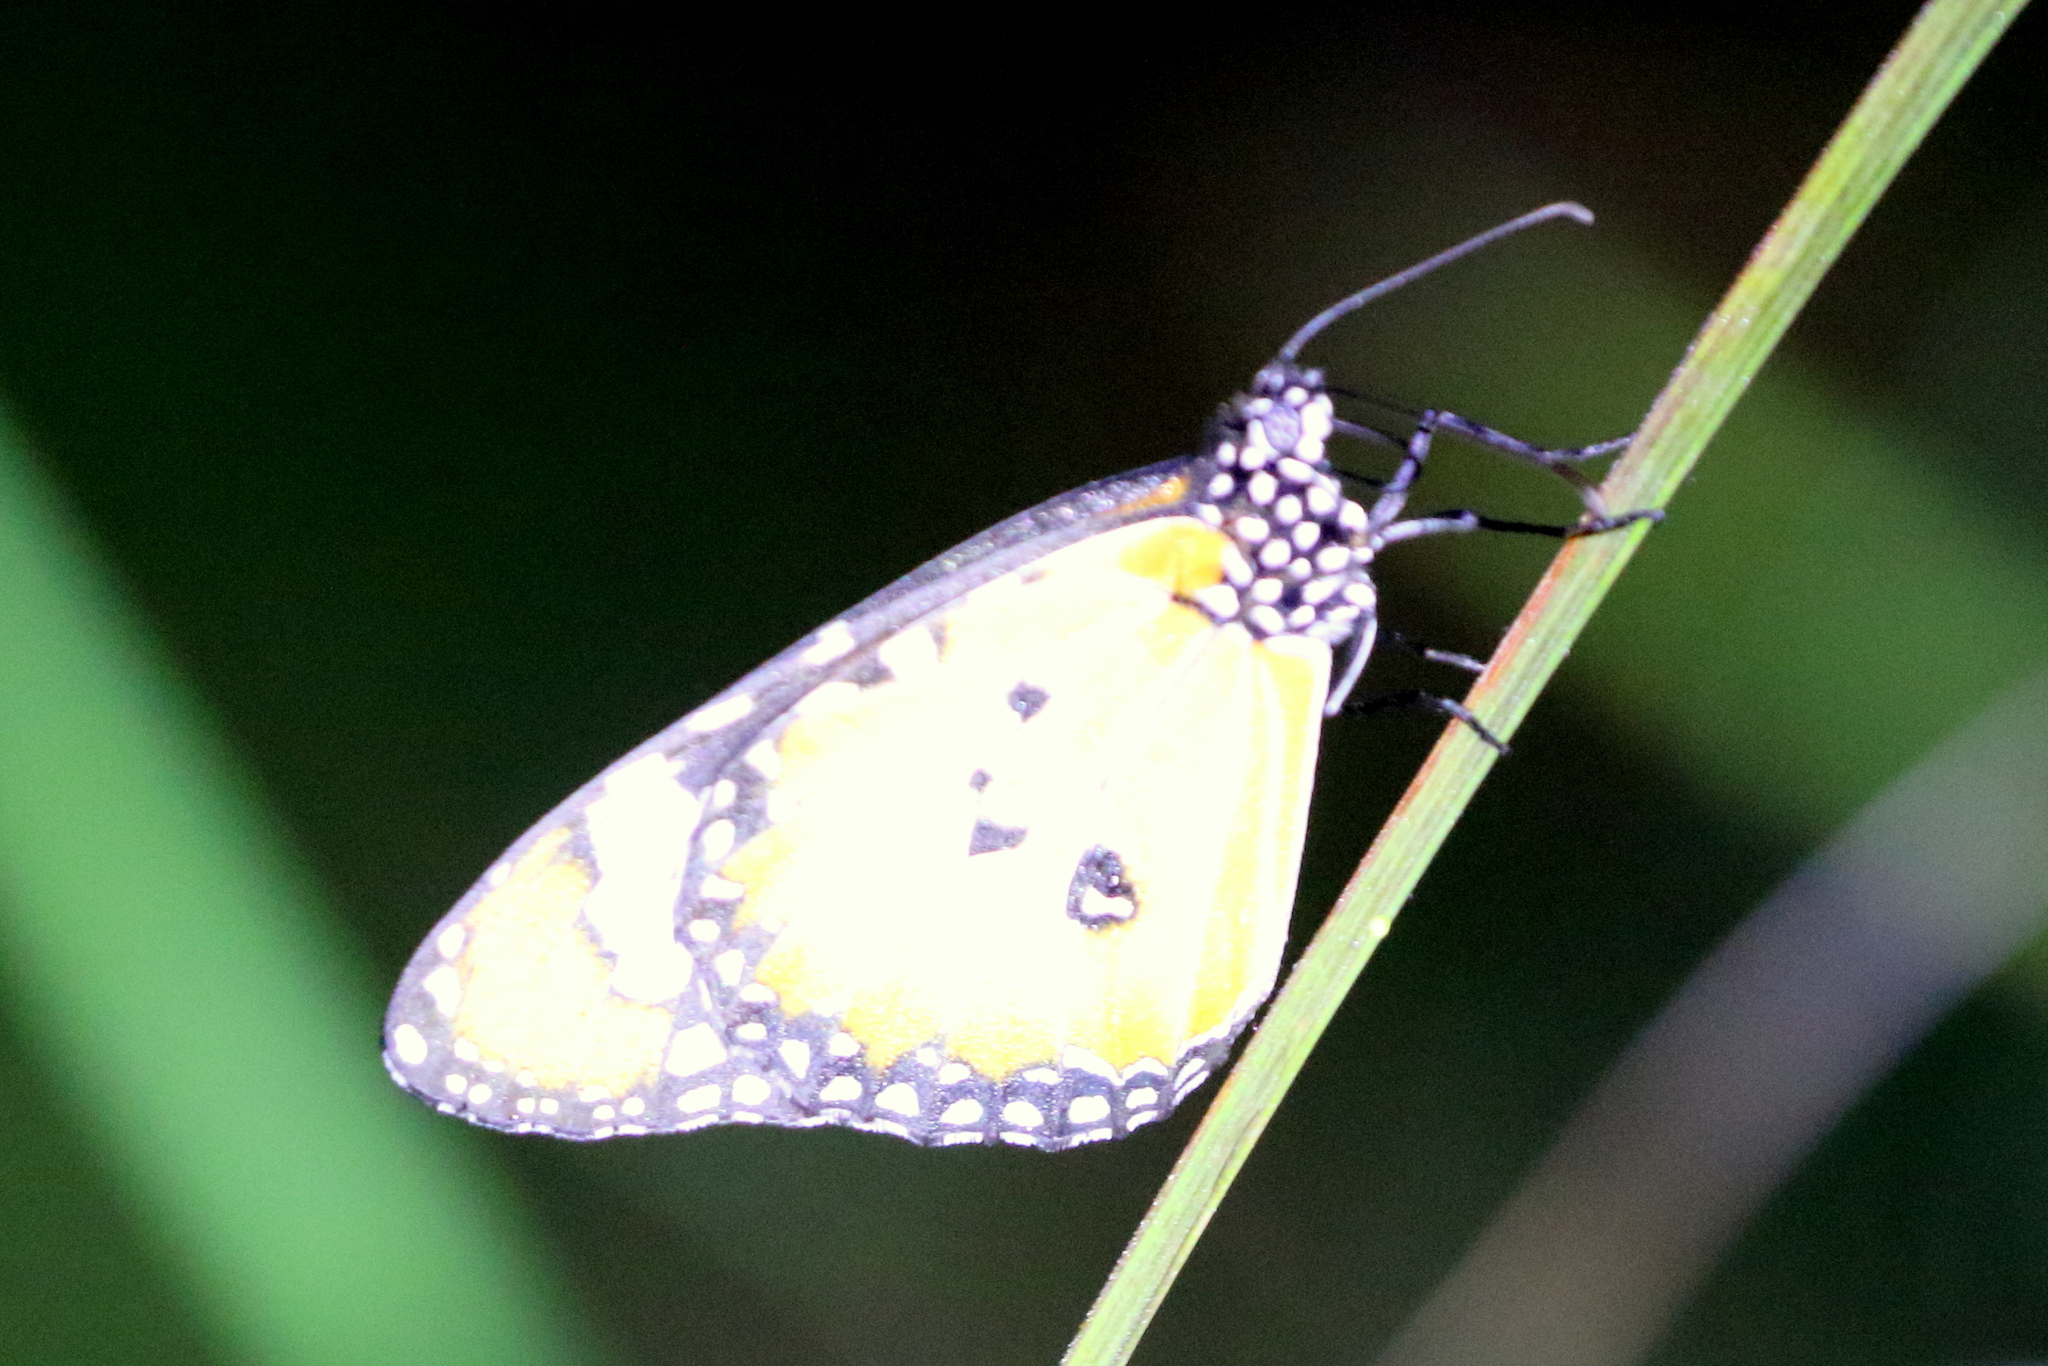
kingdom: Animalia
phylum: Arthropoda
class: Insecta
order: Lepidoptera
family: Nymphalidae
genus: Danaus
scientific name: Danaus chrysippus
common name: Plain tiger
